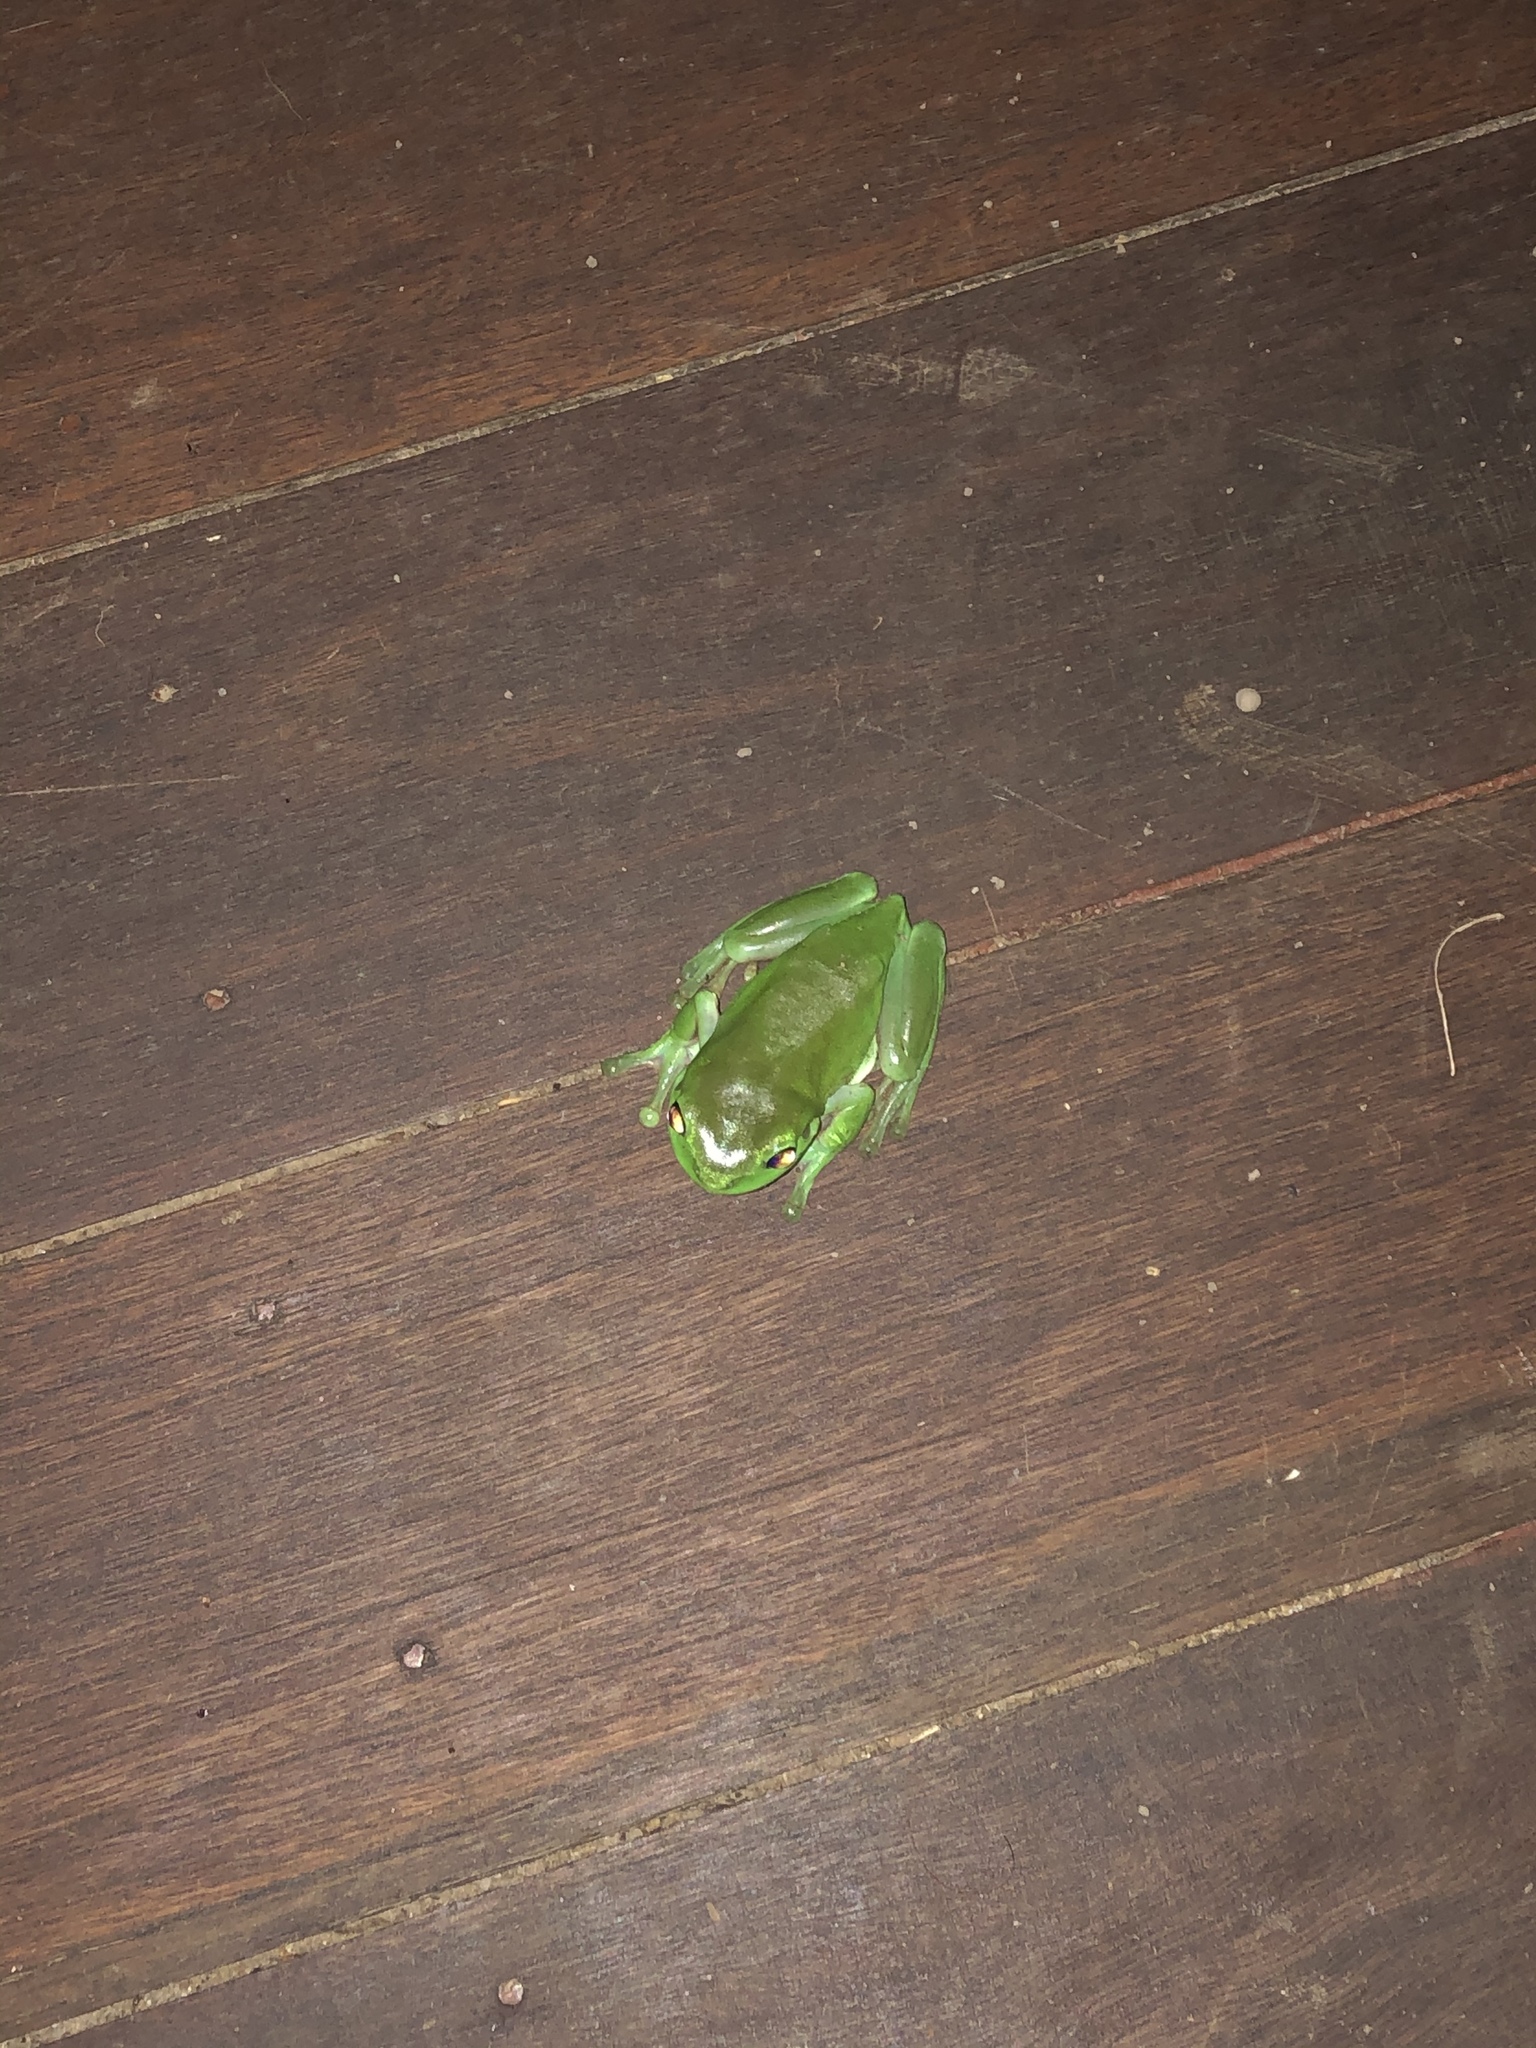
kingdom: Animalia
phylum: Chordata
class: Amphibia
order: Anura
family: Pelodryadidae
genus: Ranoidea
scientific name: Ranoidea caerulea
